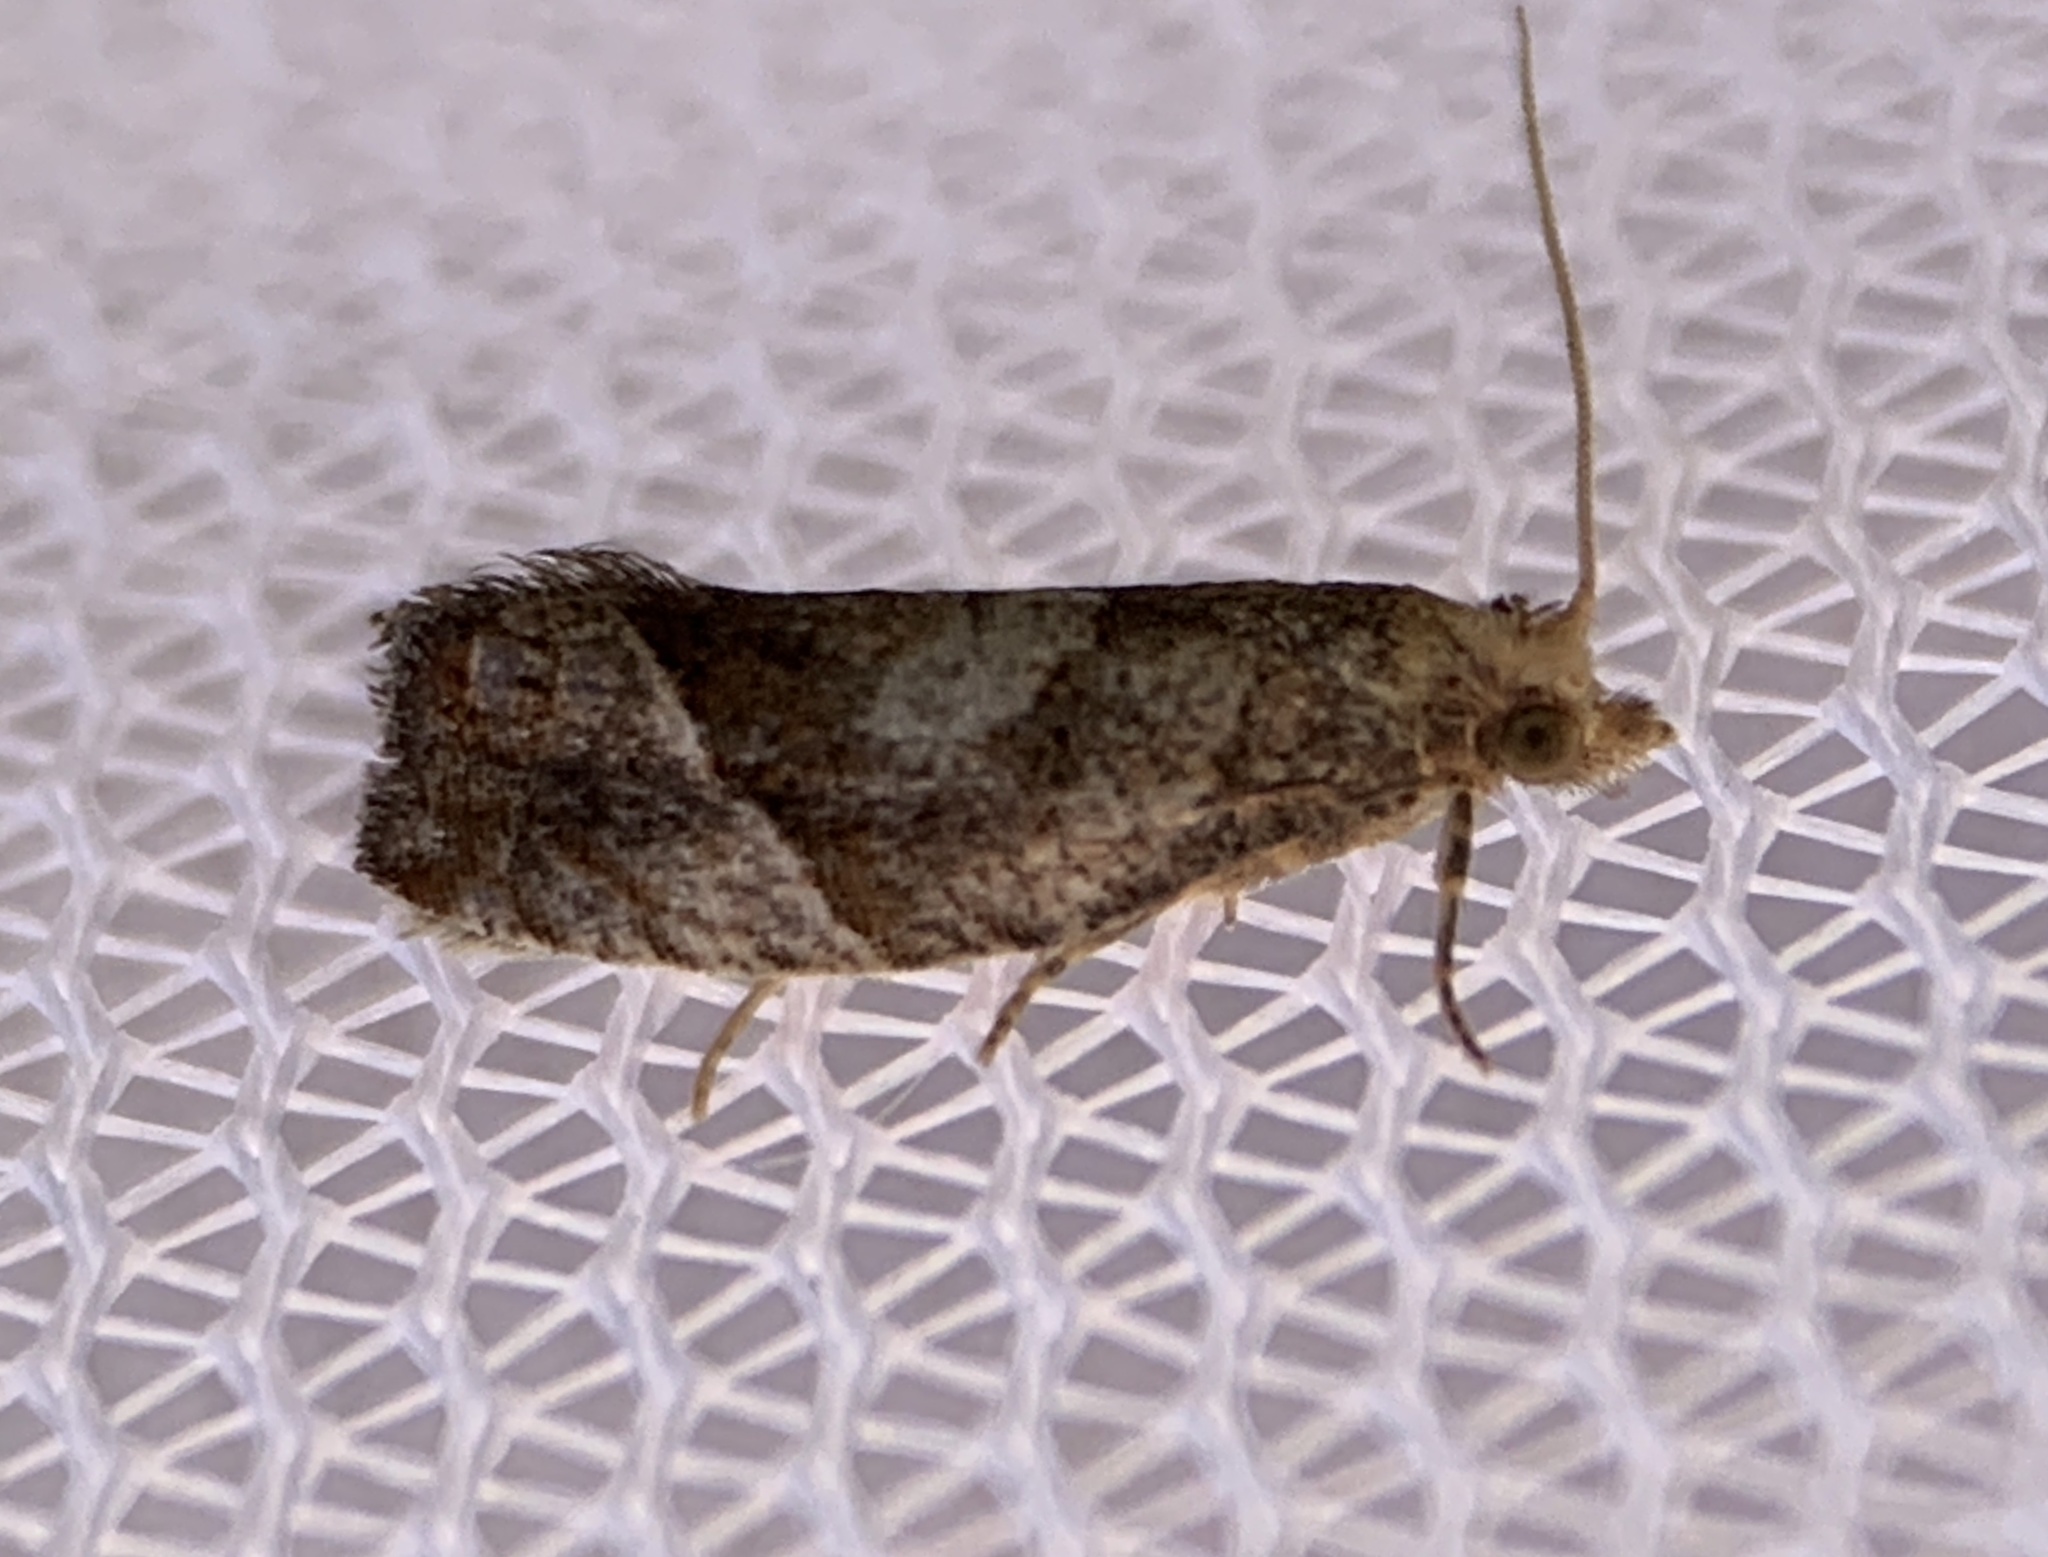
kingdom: Animalia
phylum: Arthropoda
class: Insecta
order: Lepidoptera
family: Tortricidae
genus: Pelochrista
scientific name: Pelochrista derelicta
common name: Derelict pelochrista moth
